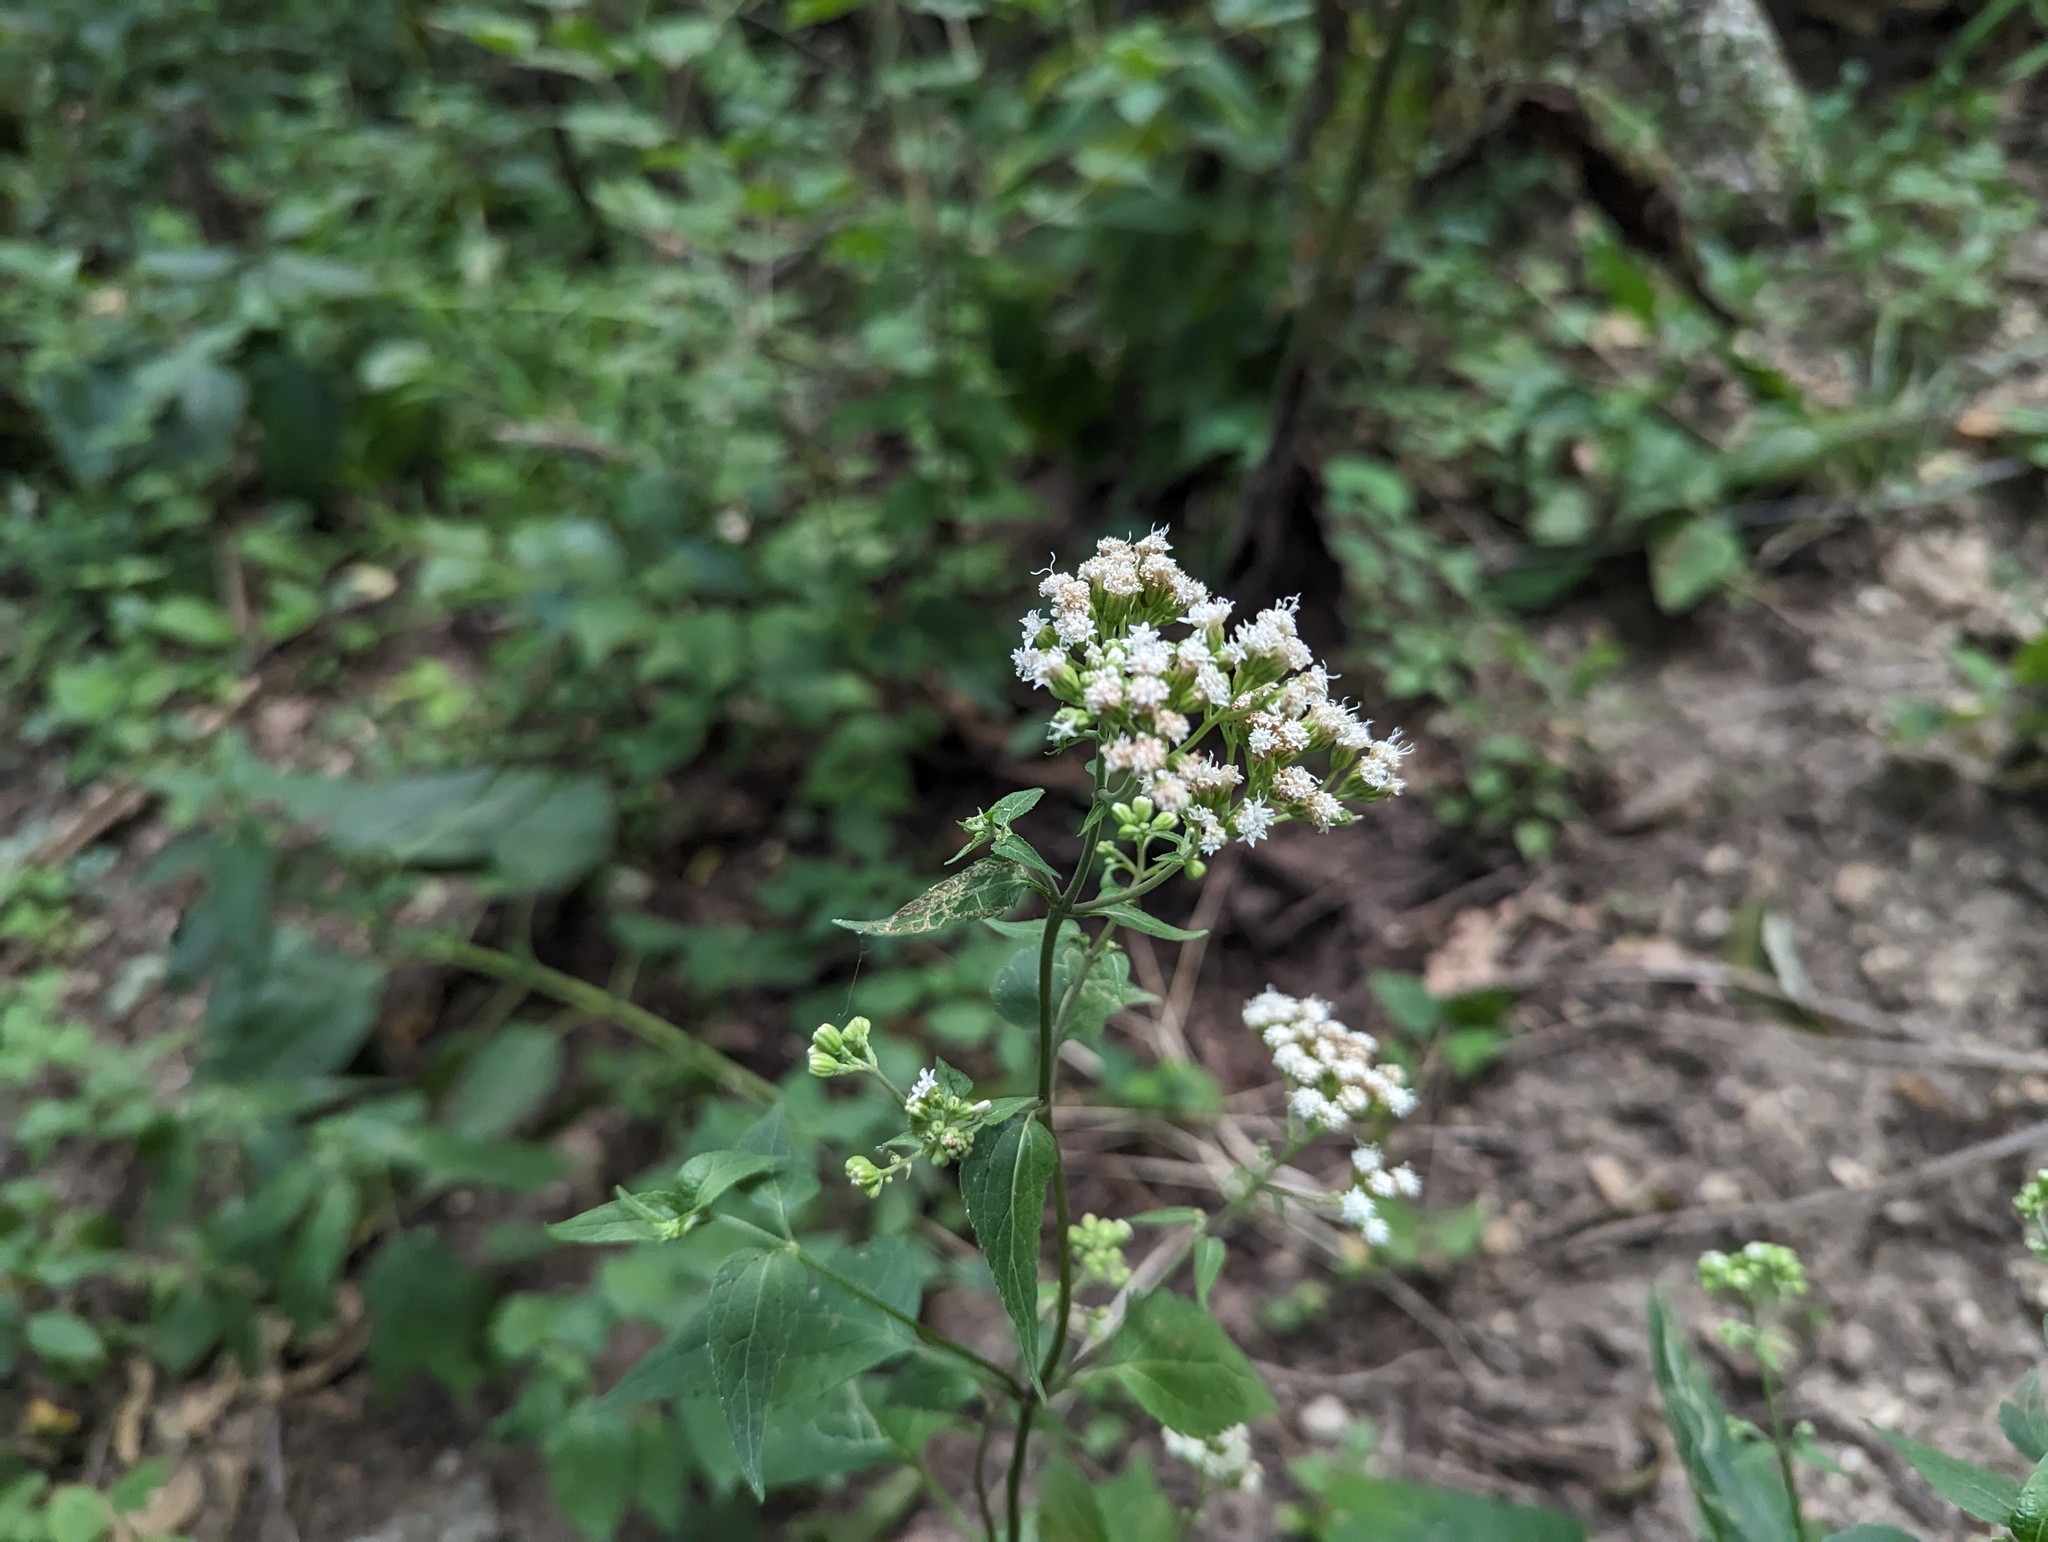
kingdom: Plantae
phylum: Tracheophyta
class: Magnoliopsida
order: Asterales
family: Asteraceae
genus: Ageratina
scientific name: Ageratina altissima
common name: White snakeroot
